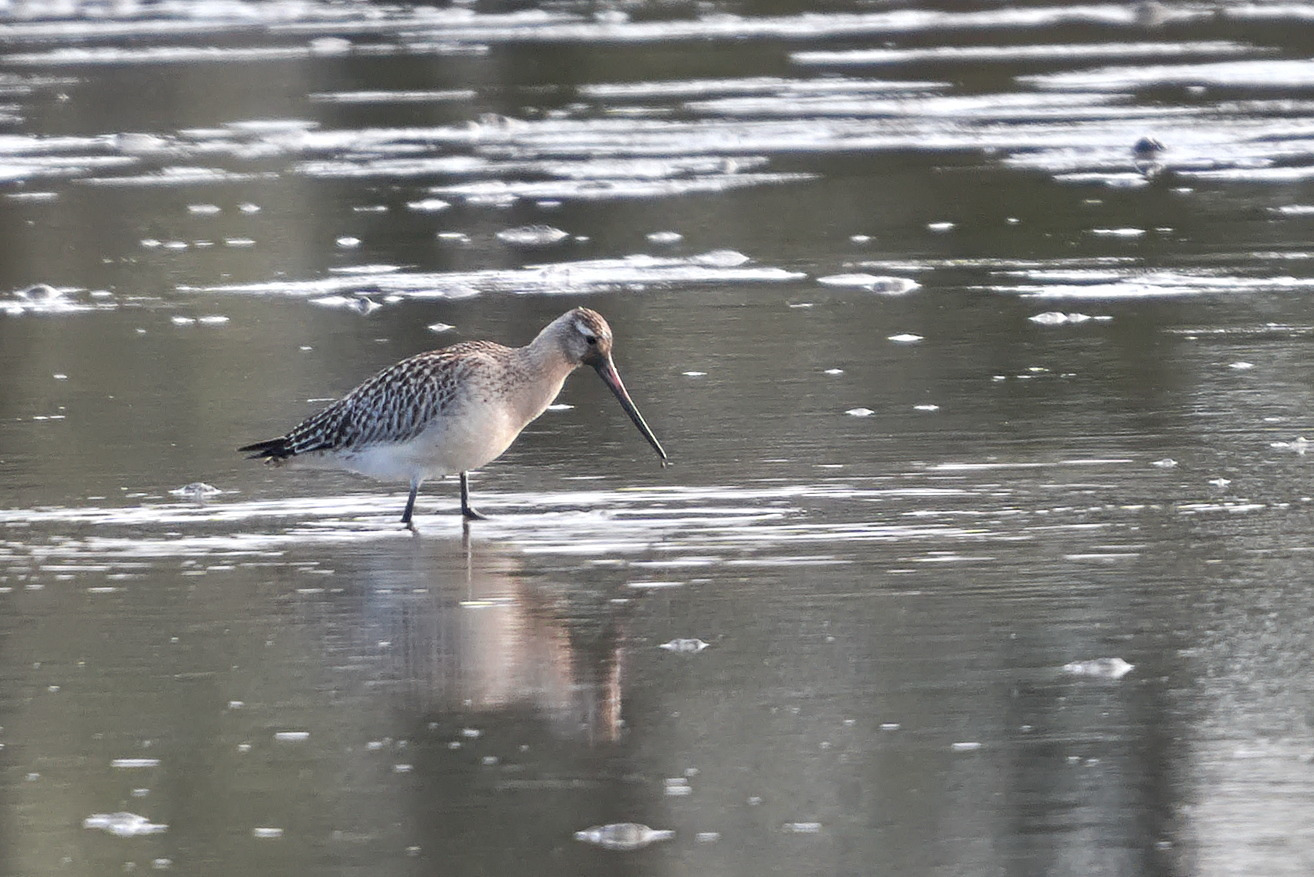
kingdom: Animalia
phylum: Chordata
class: Aves
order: Charadriiformes
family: Scolopacidae
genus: Limosa
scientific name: Limosa lapponica
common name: Bar-tailed godwit
